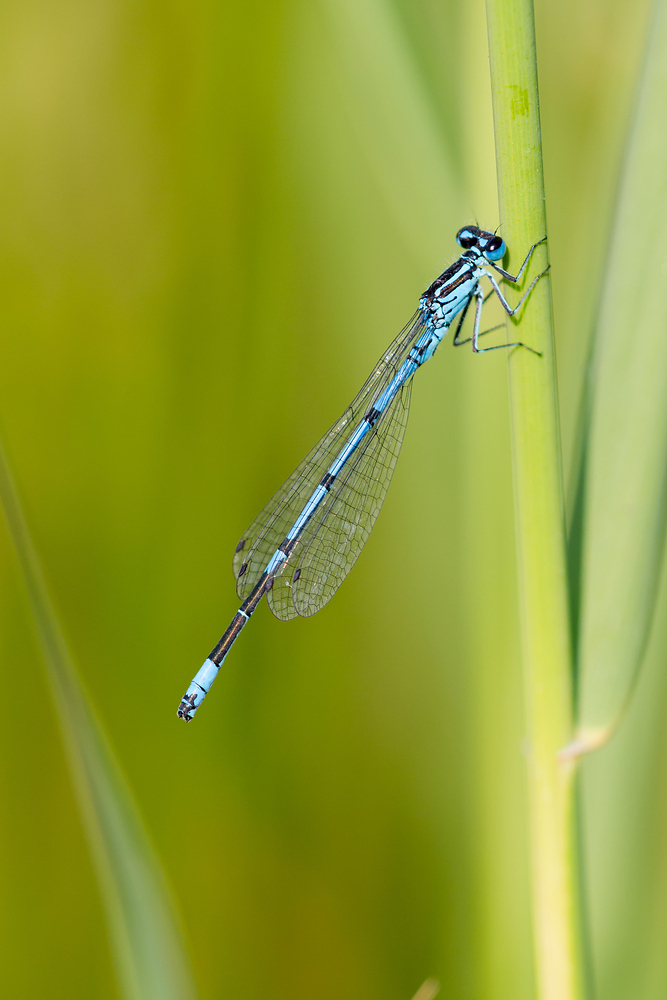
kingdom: Animalia
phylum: Arthropoda
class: Insecta
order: Odonata
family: Coenagrionidae
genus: Coenagrion
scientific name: Coenagrion puella
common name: Azure damselfly
